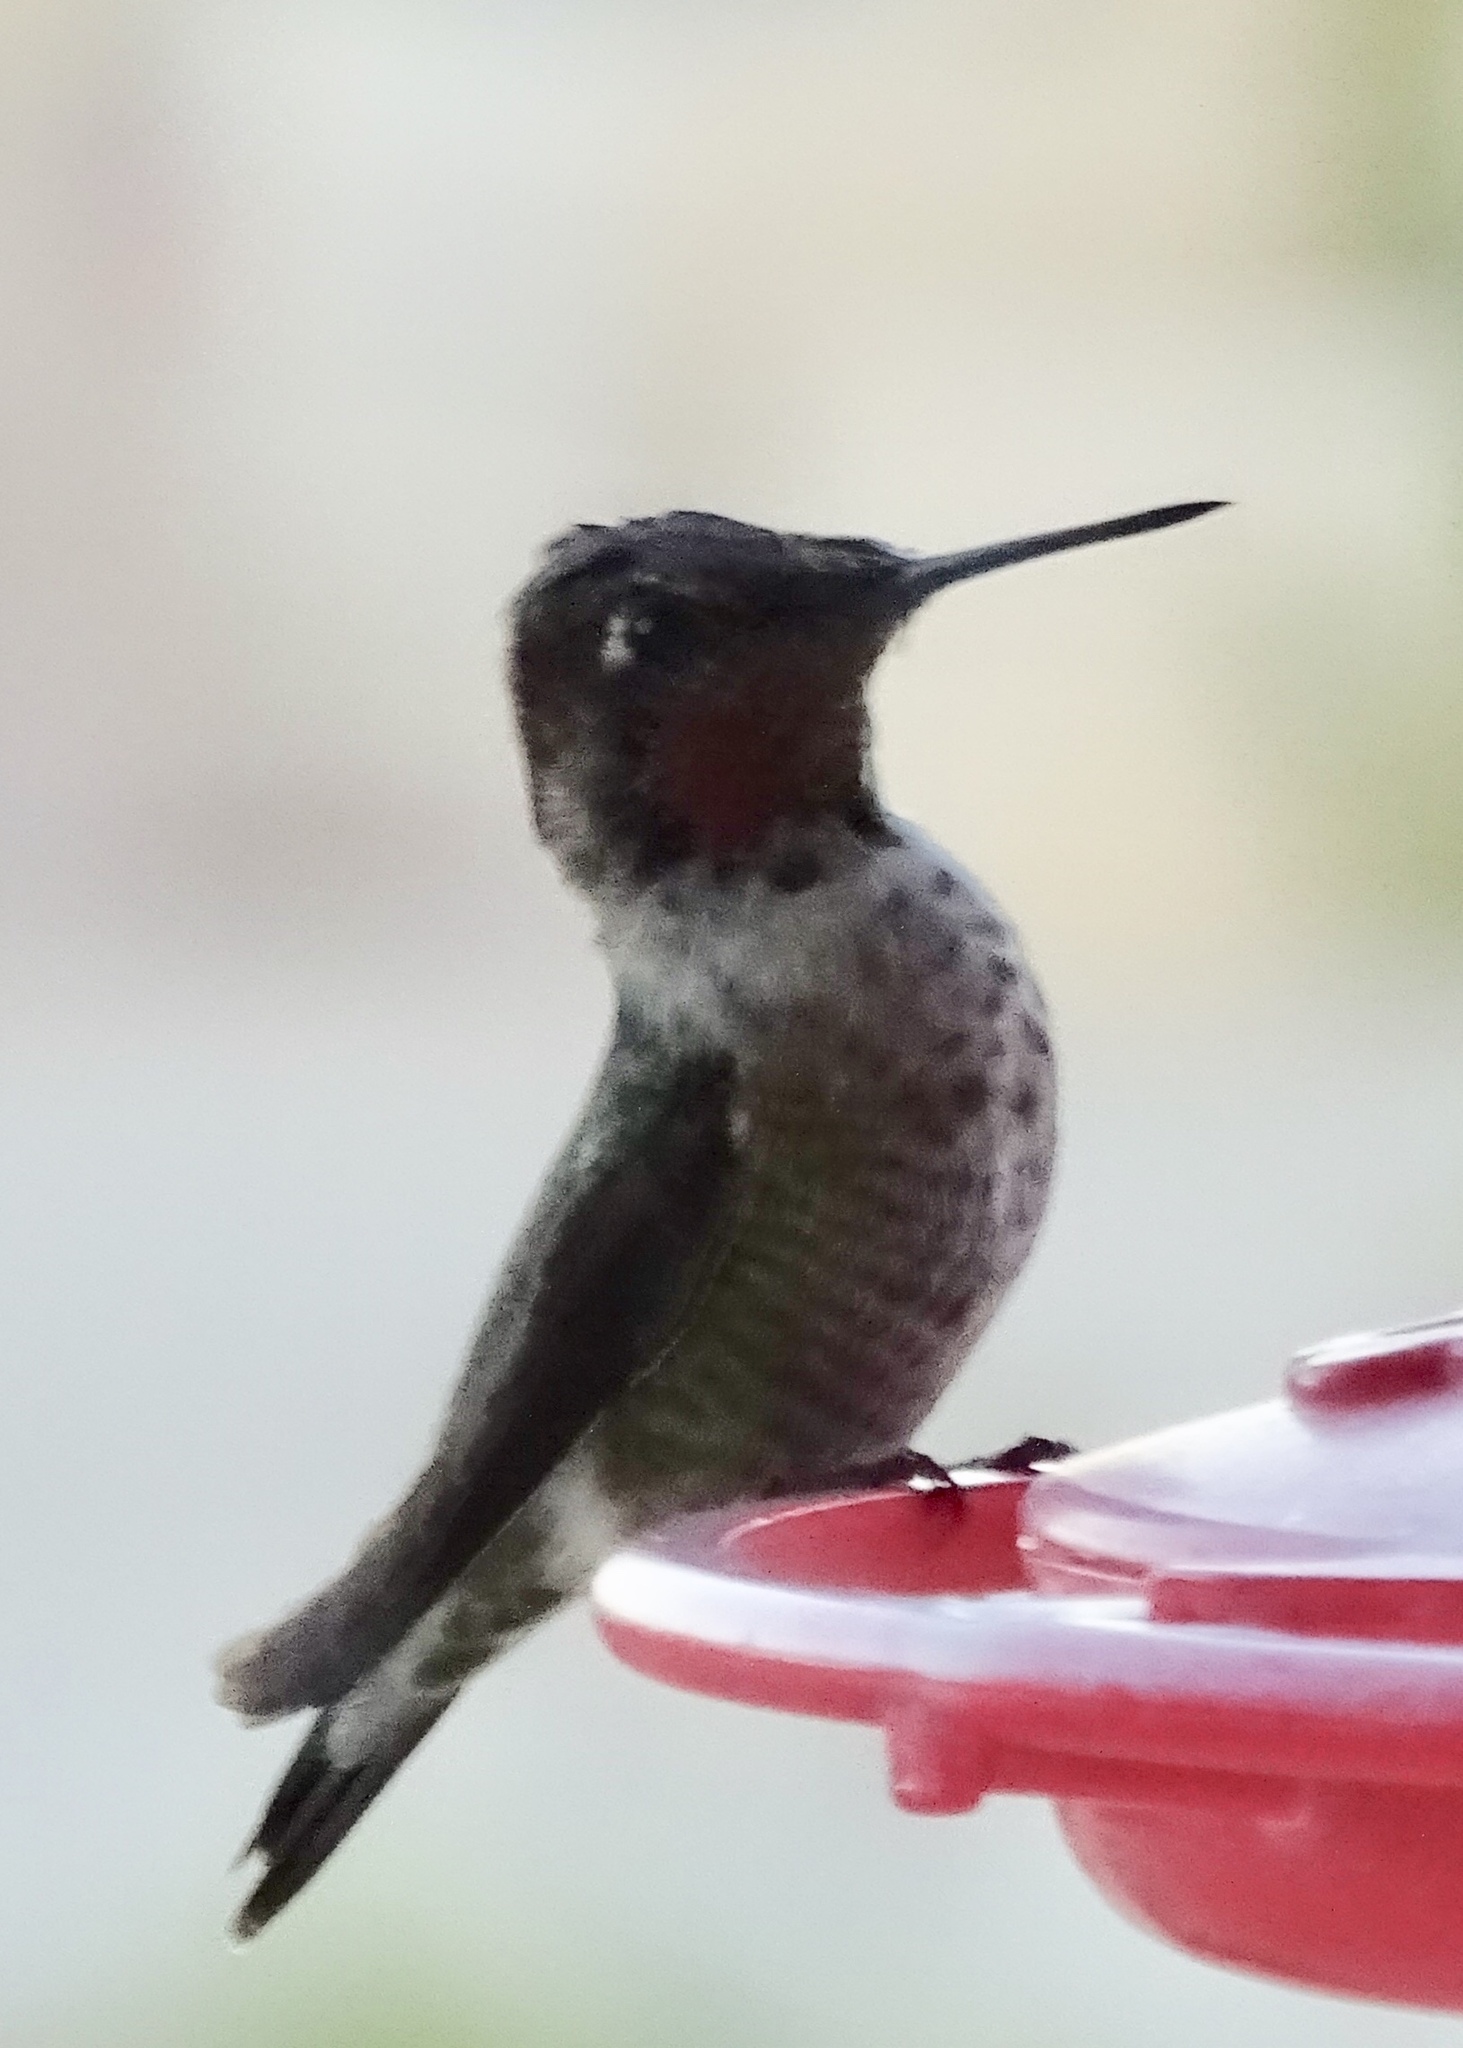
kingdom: Animalia
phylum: Chordata
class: Aves
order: Apodiformes
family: Trochilidae
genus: Calypte
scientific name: Calypte anna
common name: Anna's hummingbird
